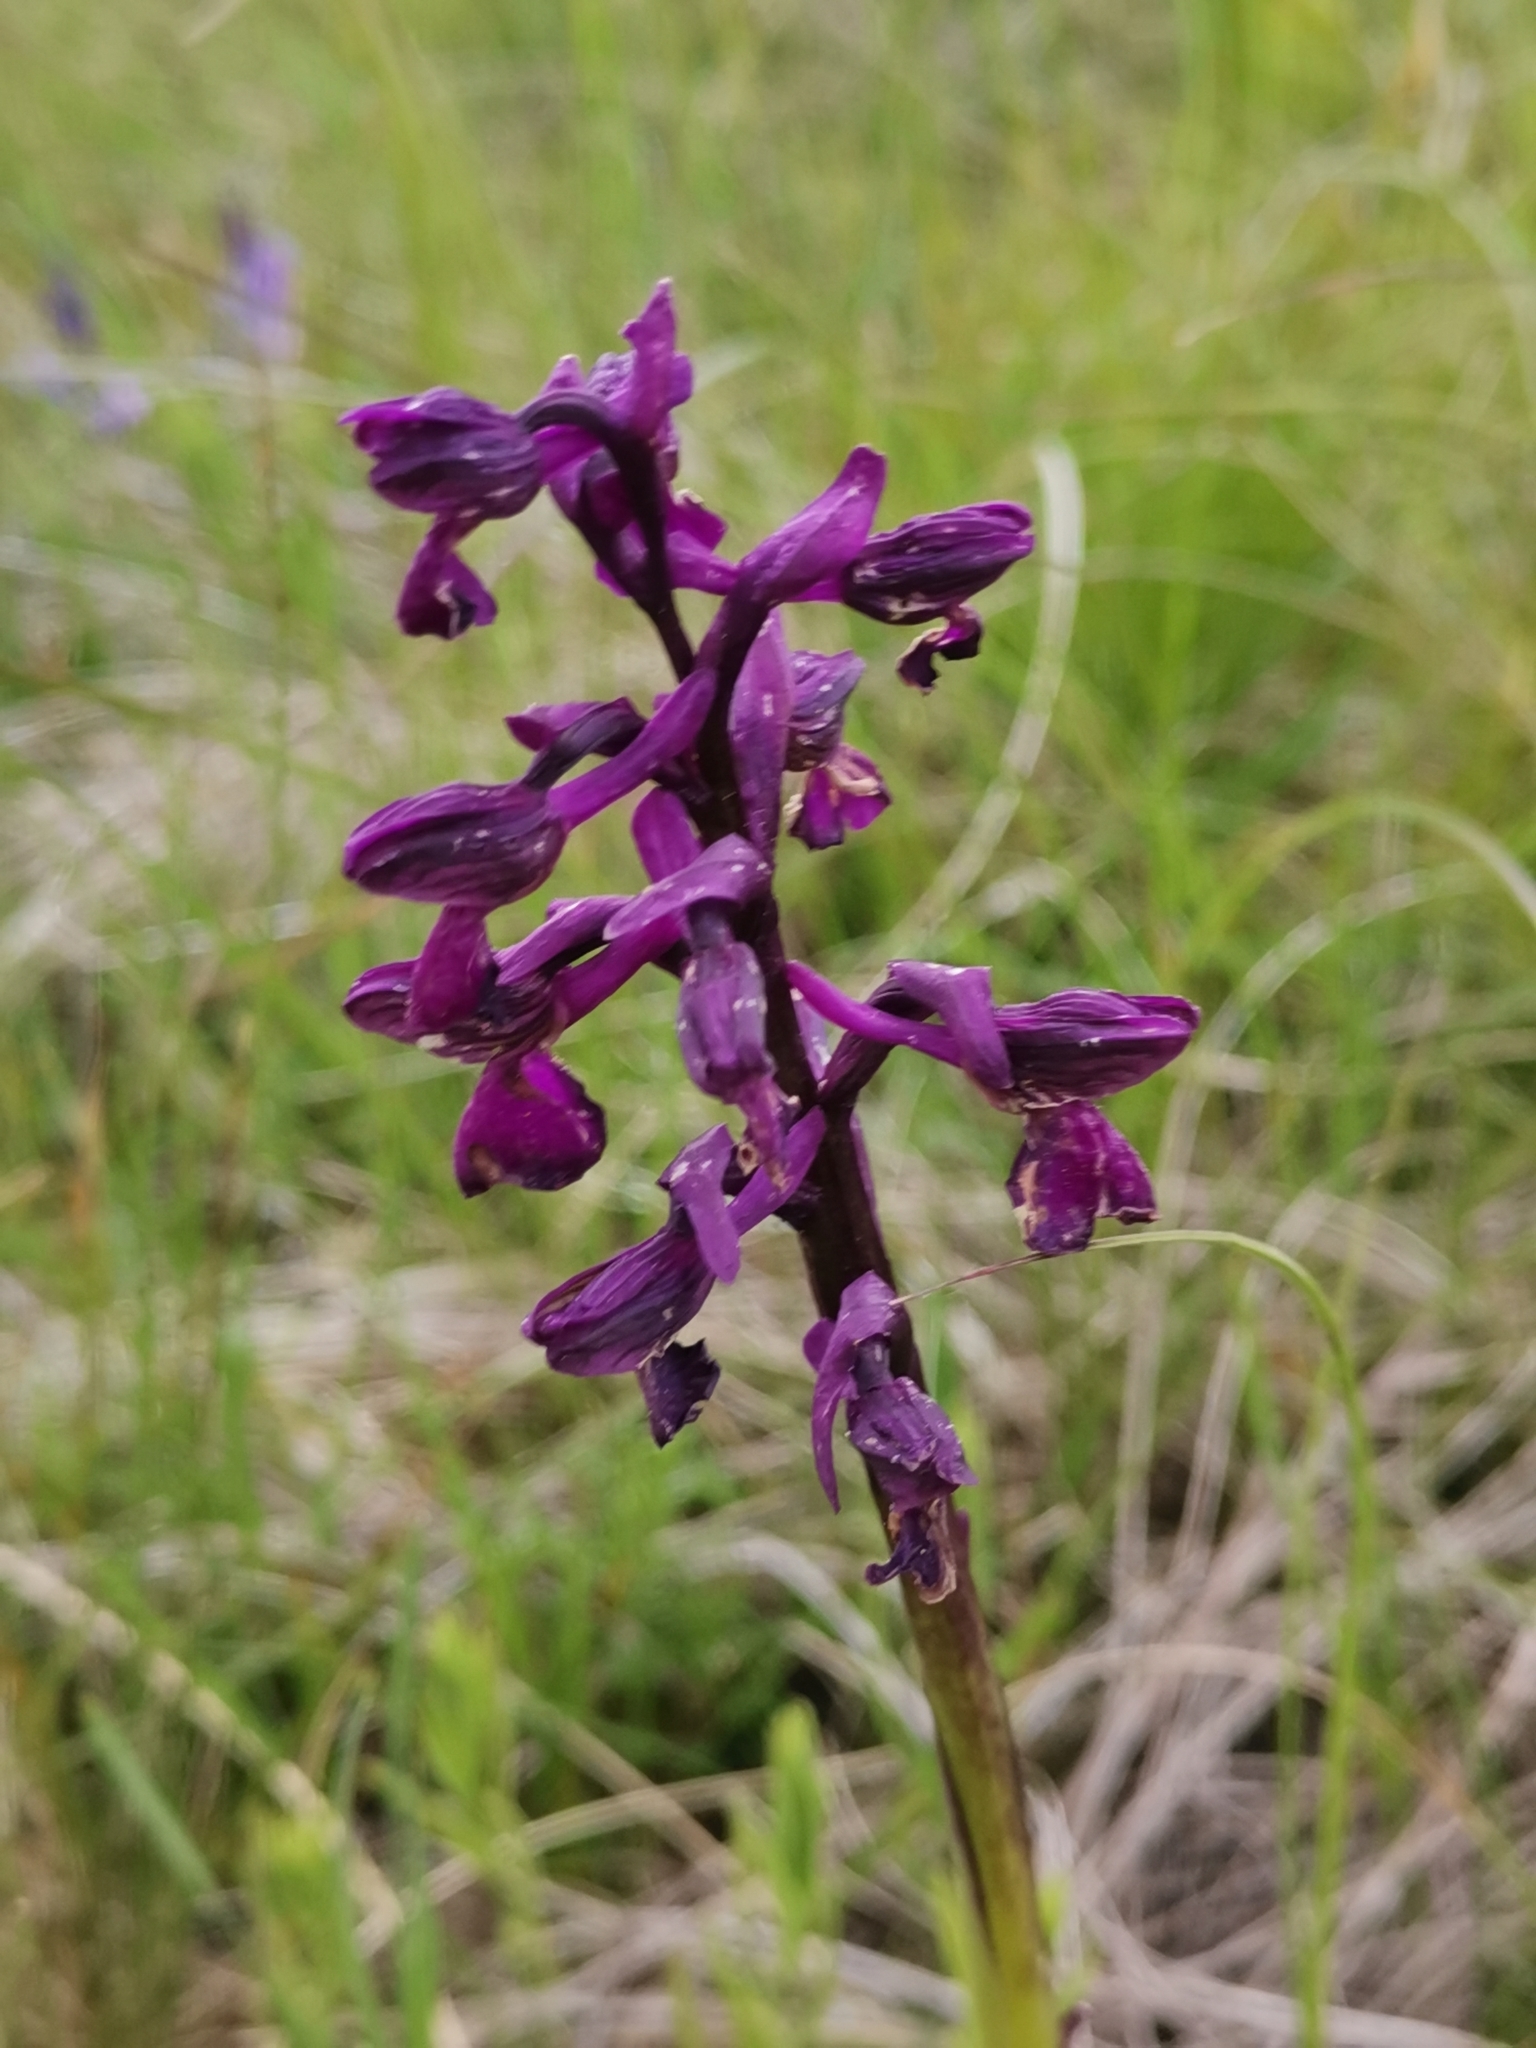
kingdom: Plantae
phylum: Tracheophyta
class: Liliopsida
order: Asparagales
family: Orchidaceae
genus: Anacamptis
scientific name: Anacamptis morio
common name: Green-winged orchid
